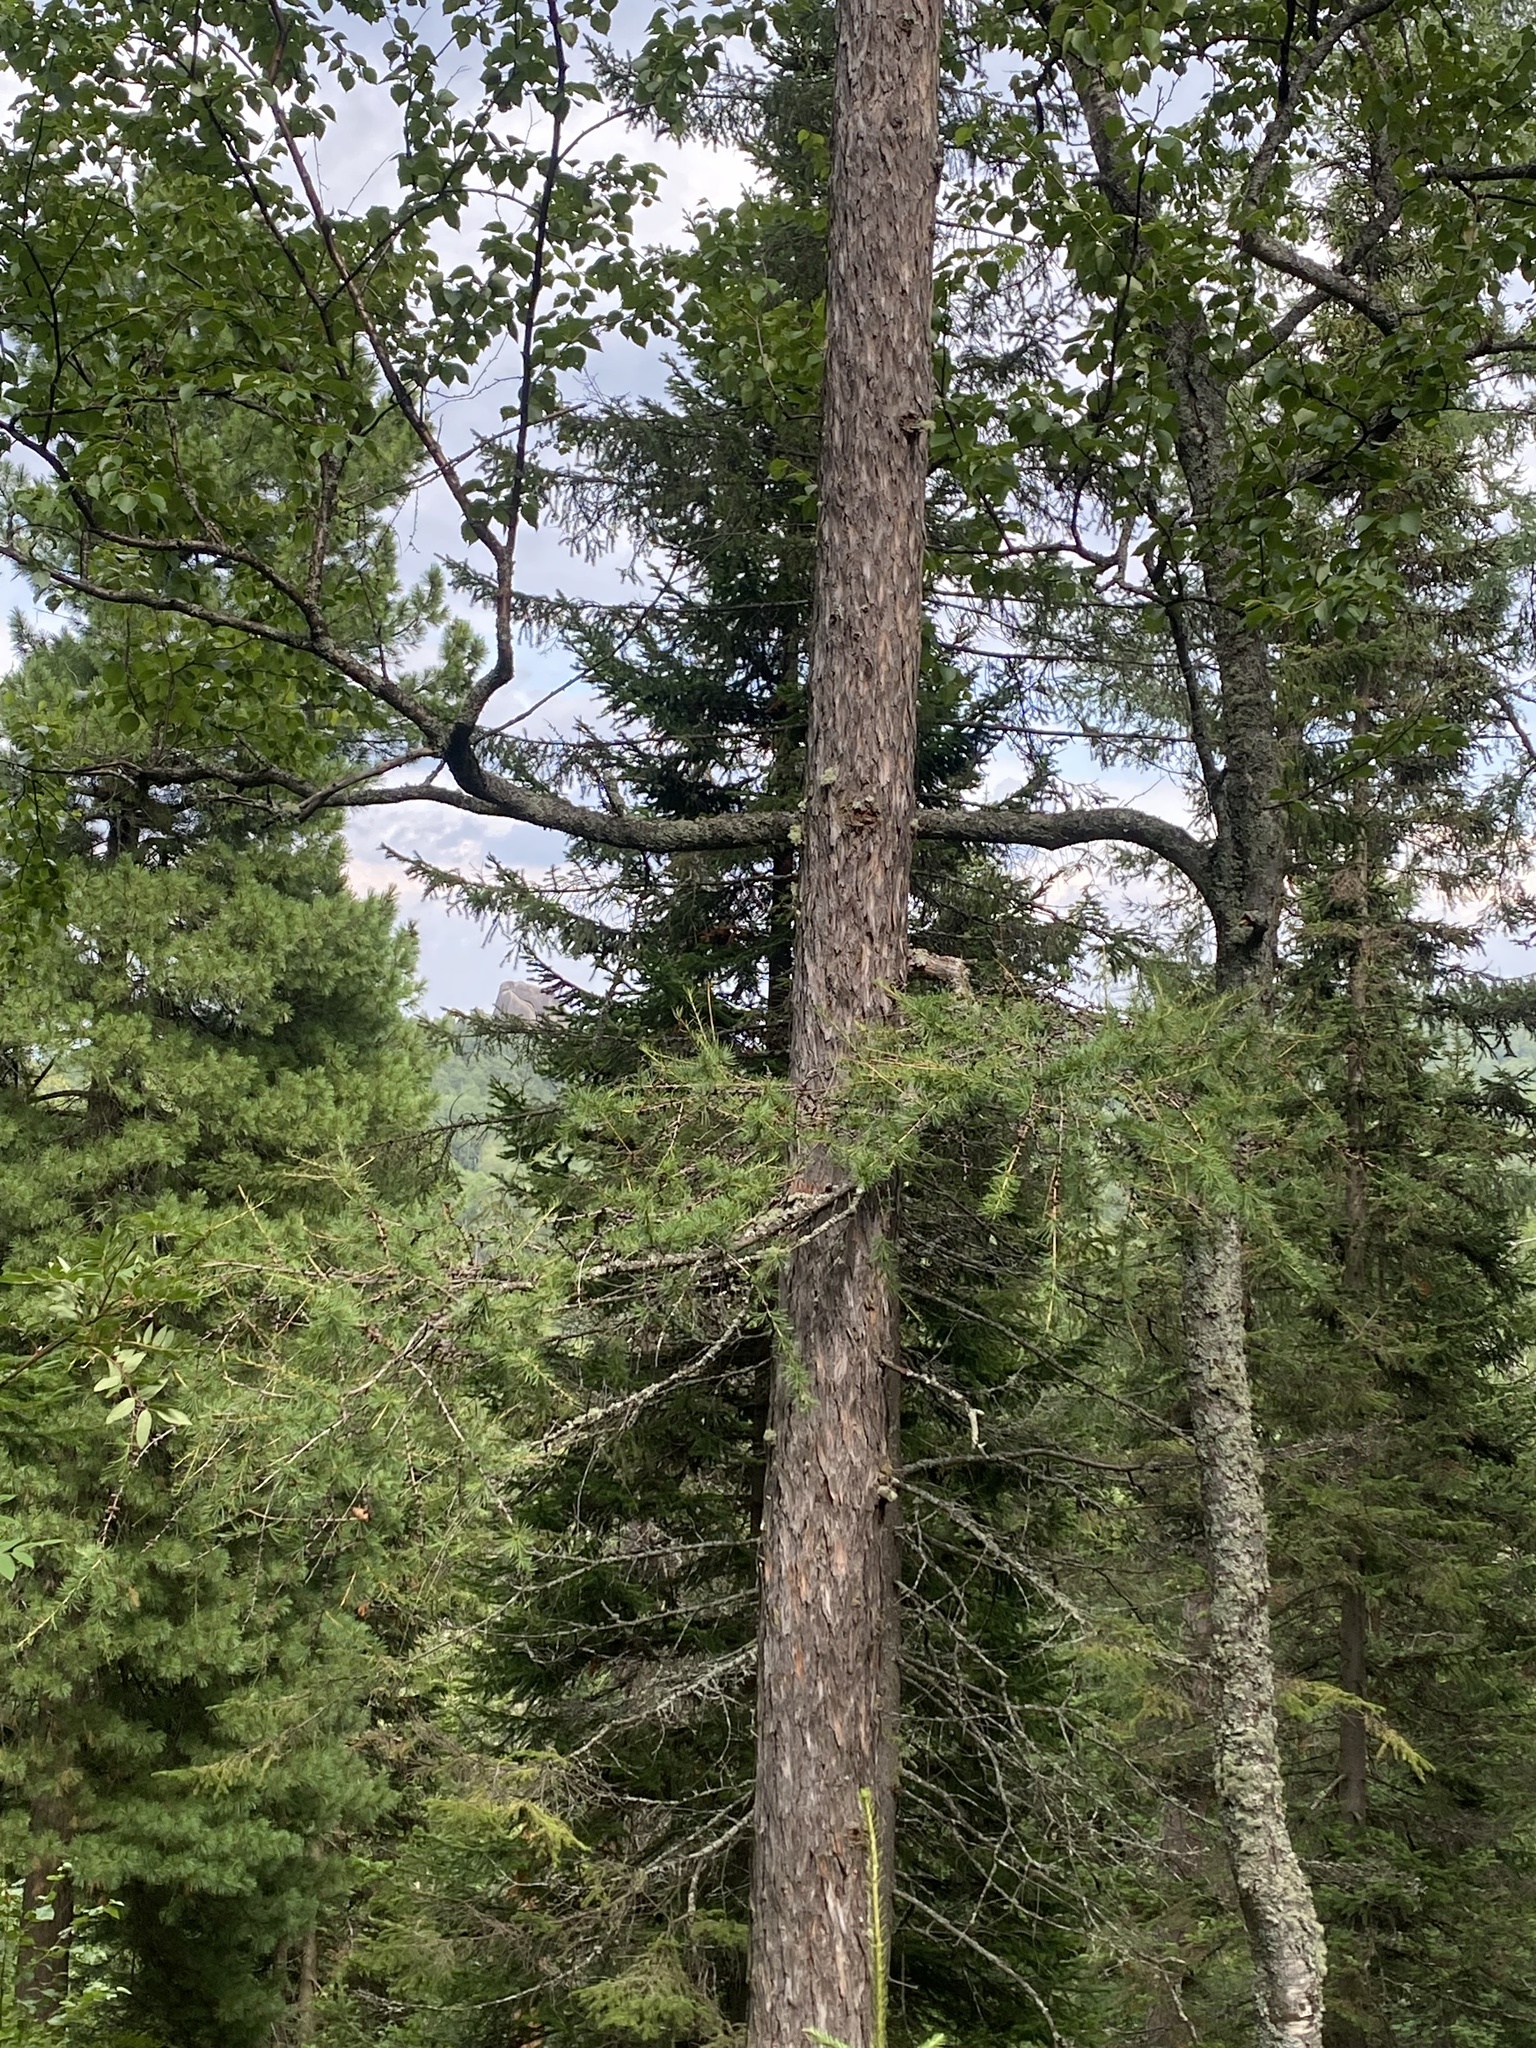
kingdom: Plantae
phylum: Tracheophyta
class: Pinopsida
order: Pinales
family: Pinaceae
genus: Larix
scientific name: Larix sibirica
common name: Siberian larch
